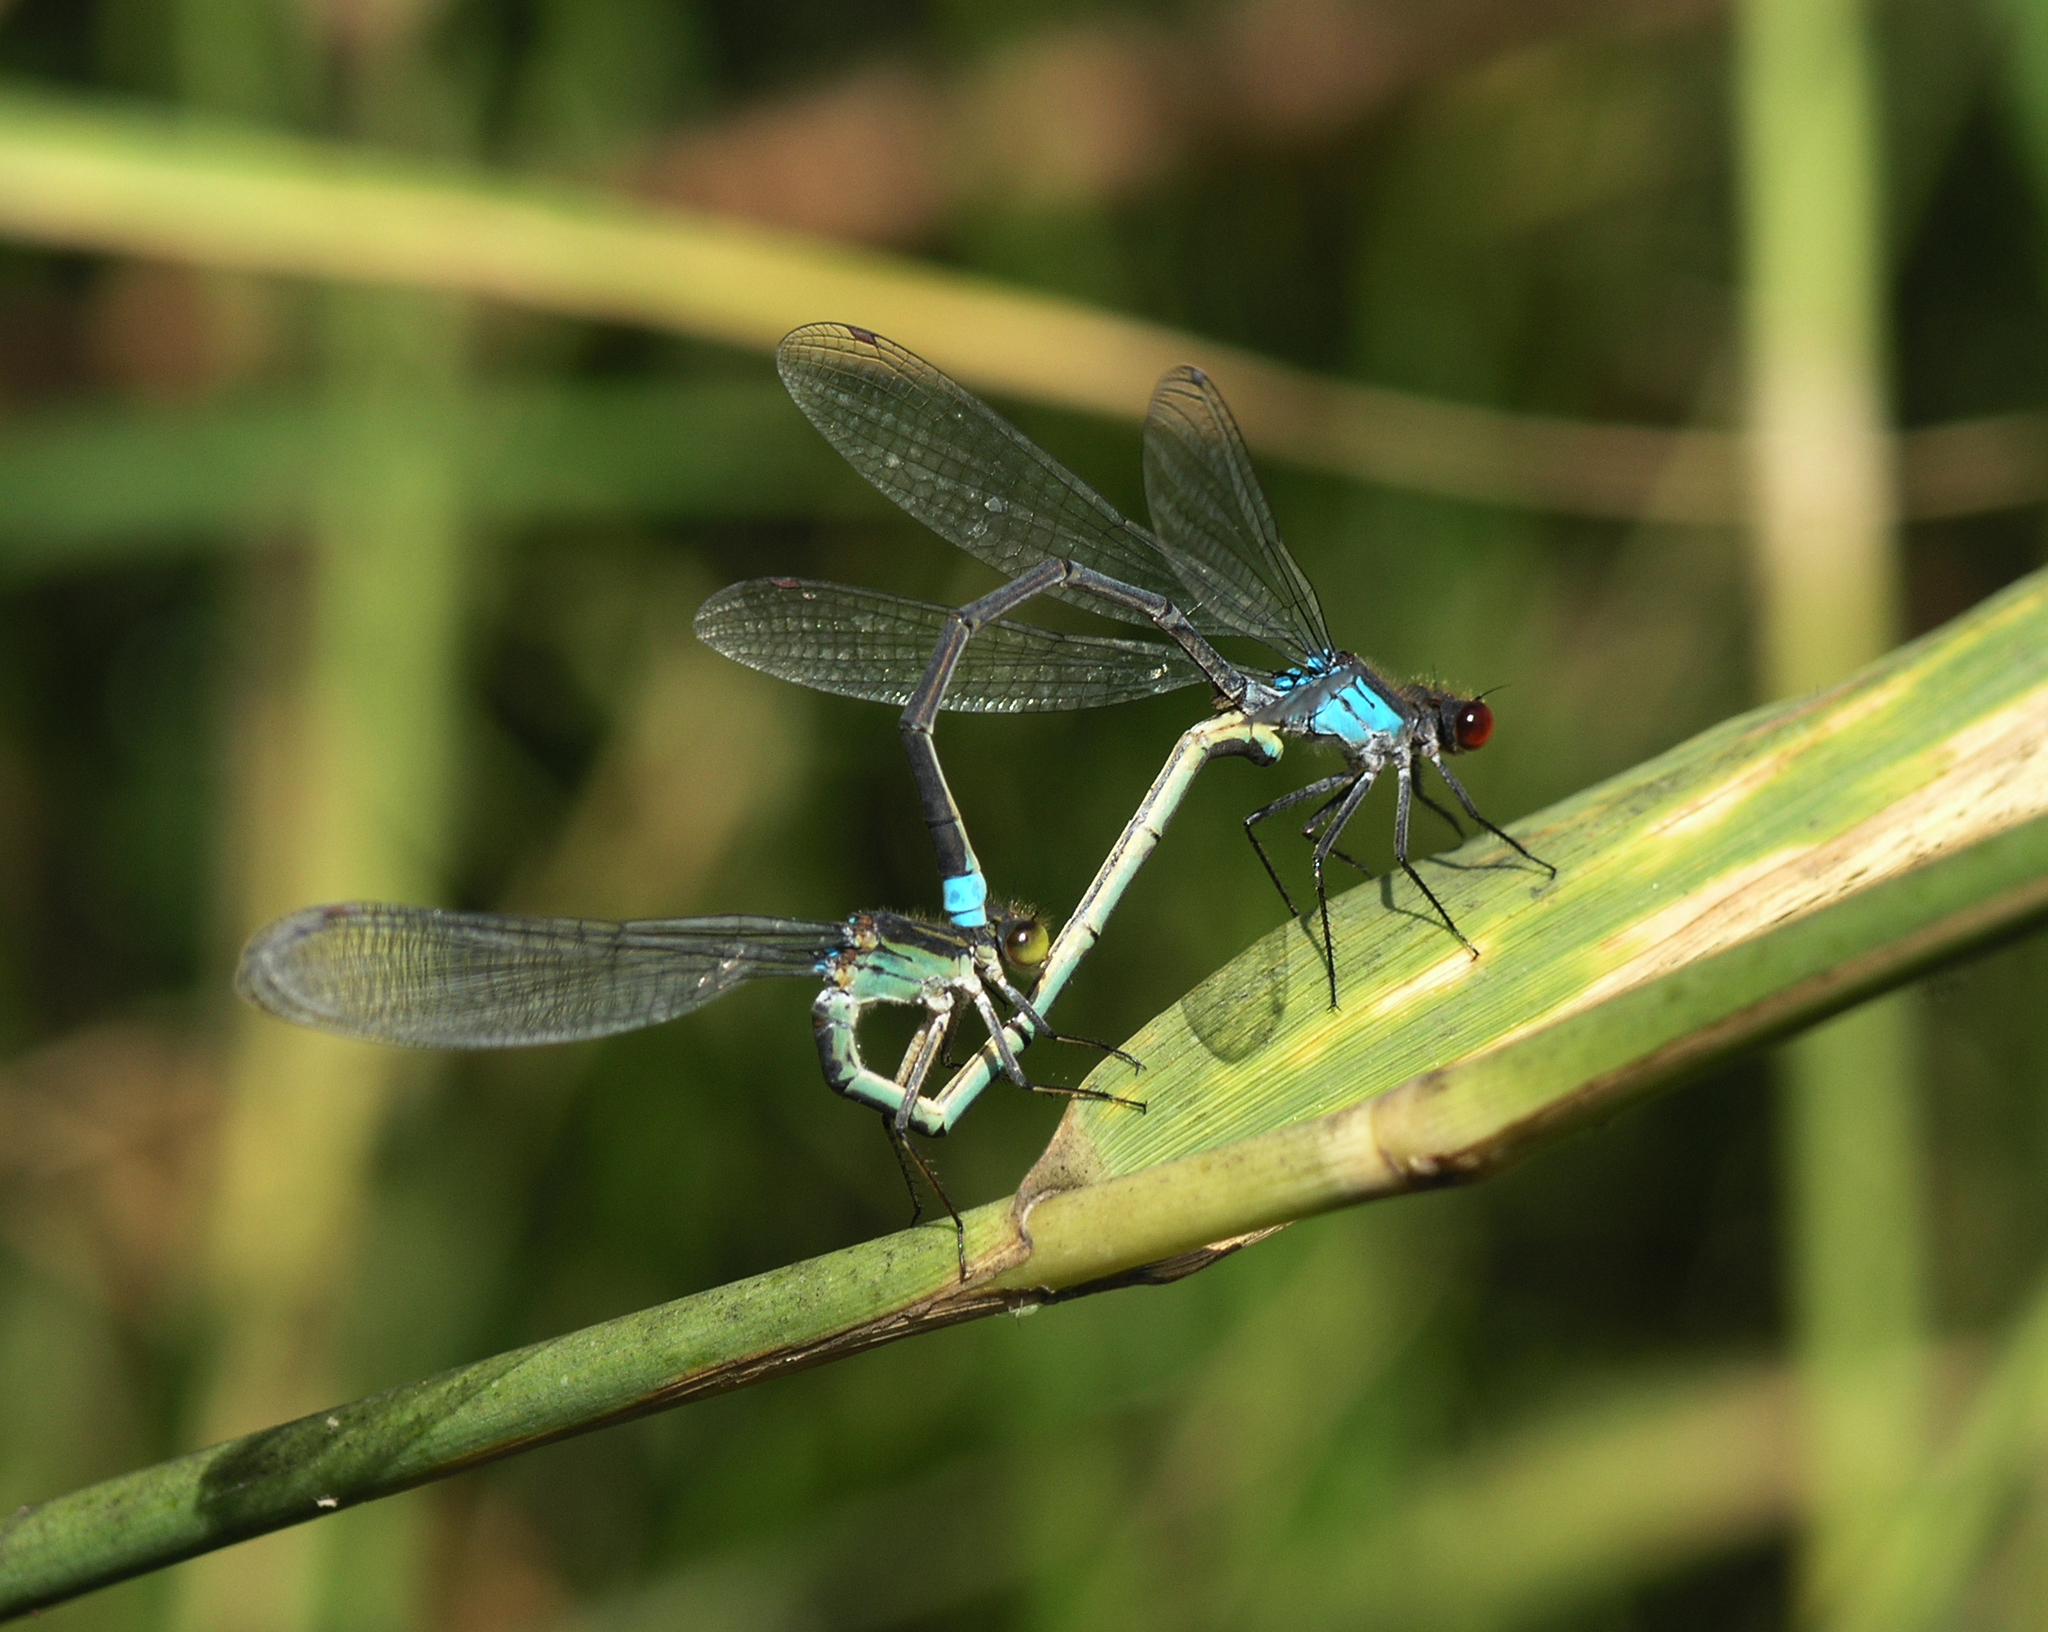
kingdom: Animalia
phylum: Arthropoda
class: Insecta
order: Odonata
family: Coenagrionidae
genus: Erythromma
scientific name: Erythromma najas
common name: Red-eyed damselfly
